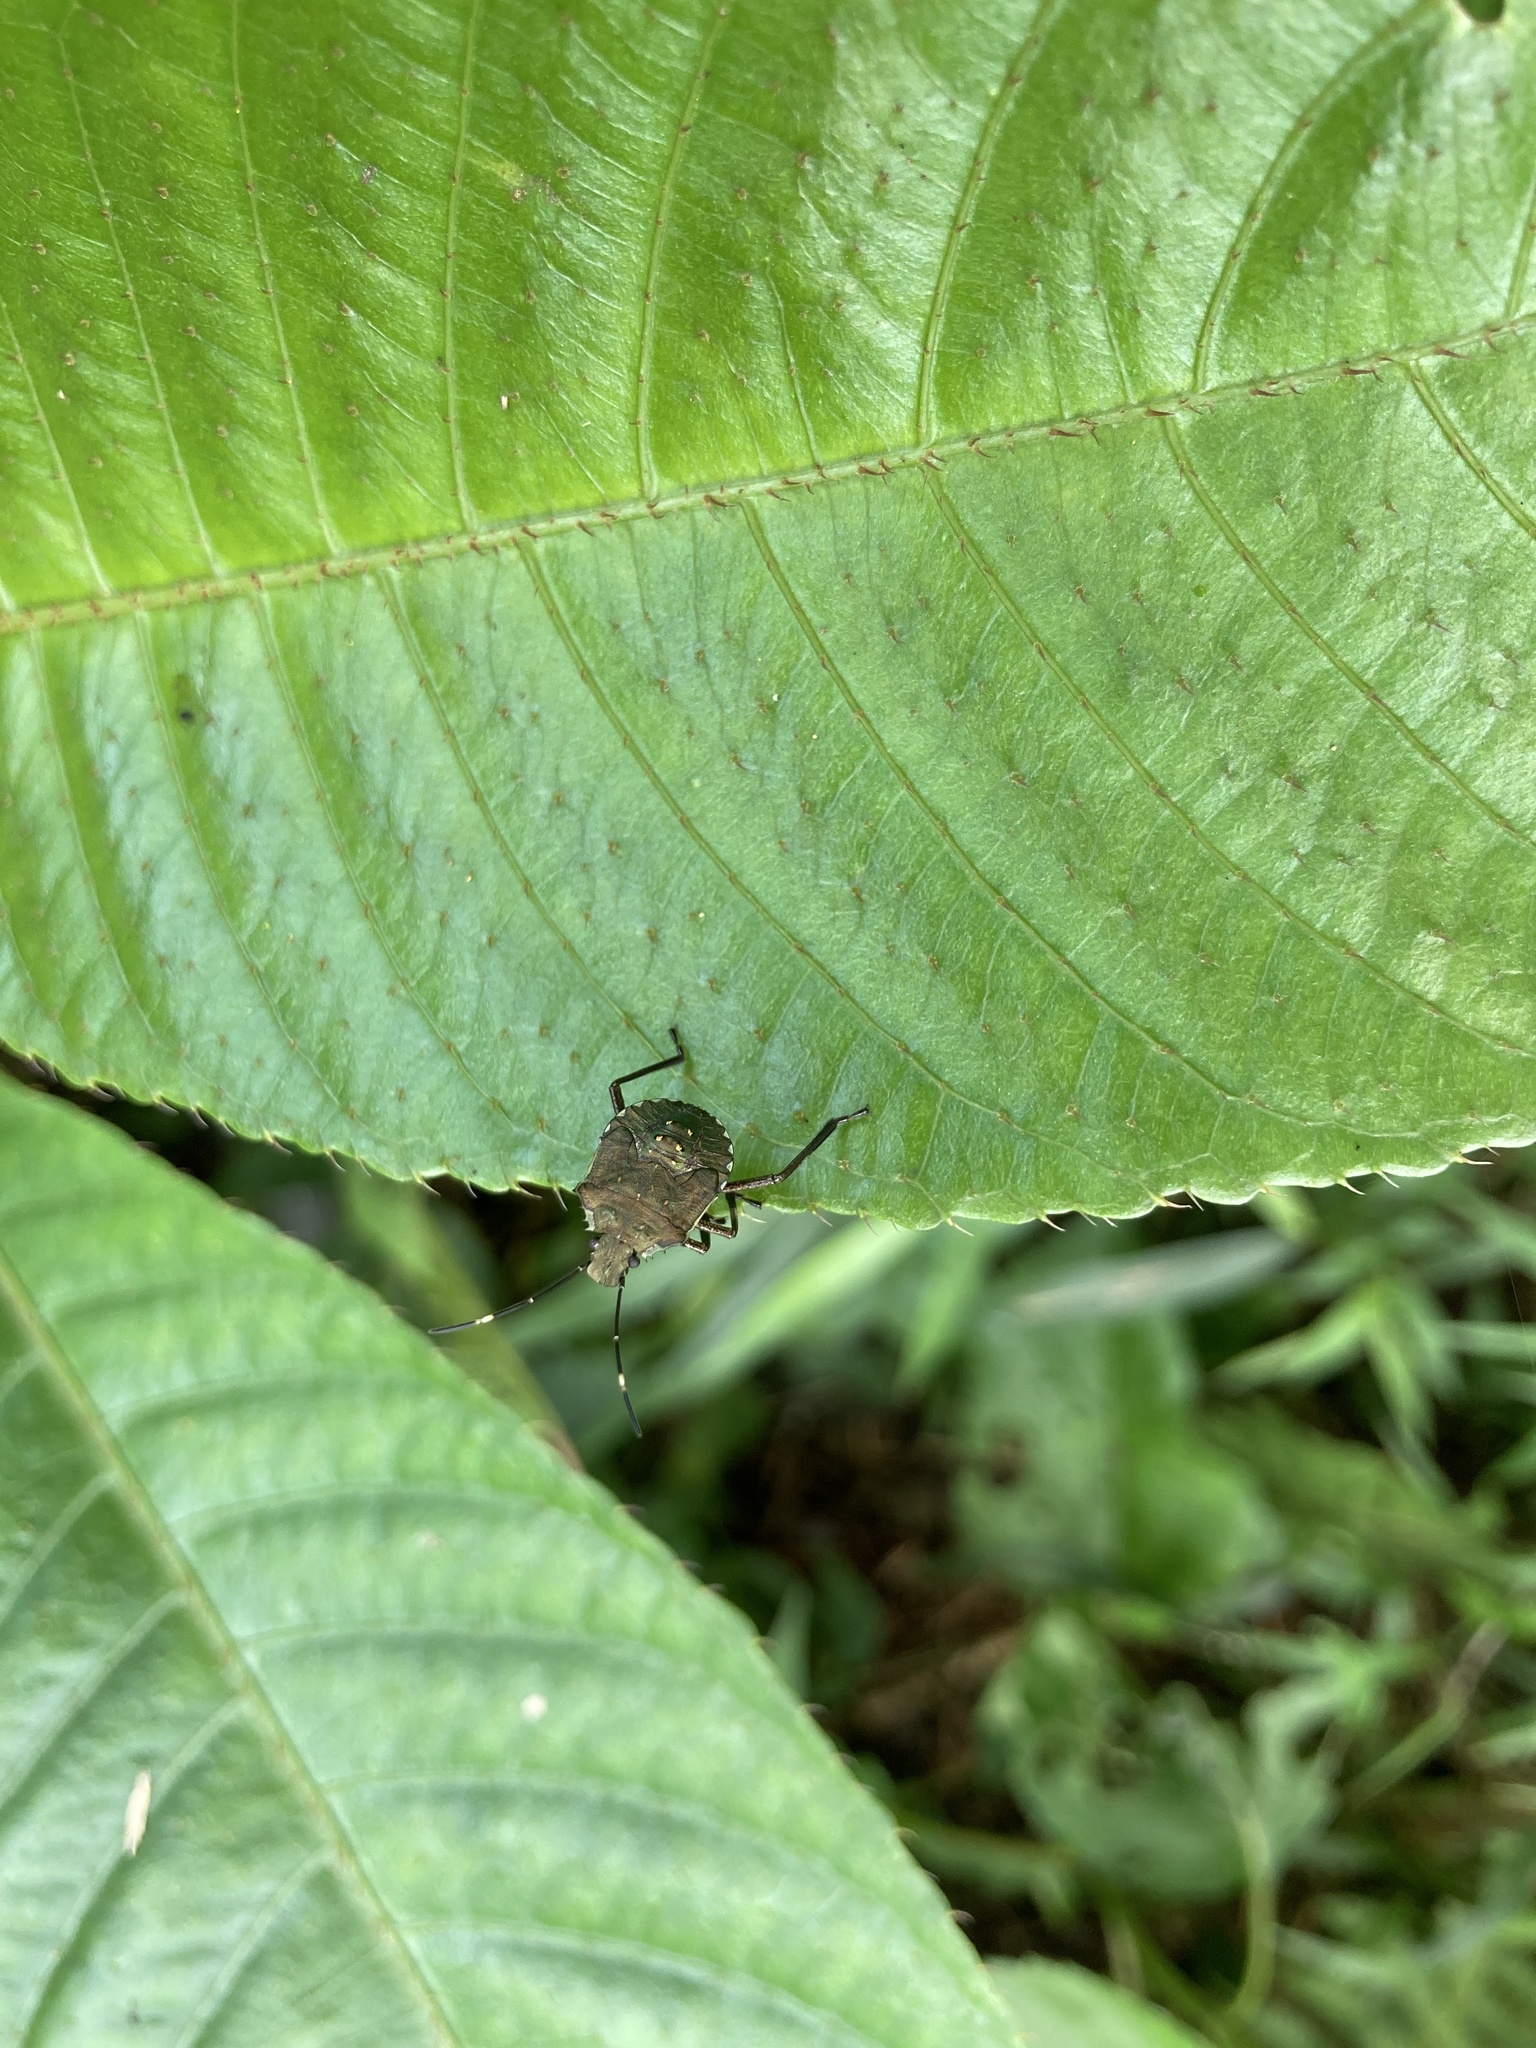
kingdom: Animalia
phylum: Arthropoda
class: Insecta
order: Hemiptera
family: Pentatomidae
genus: Halyomorpha
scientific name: Halyomorpha halys
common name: Brown marmorated stink bug
